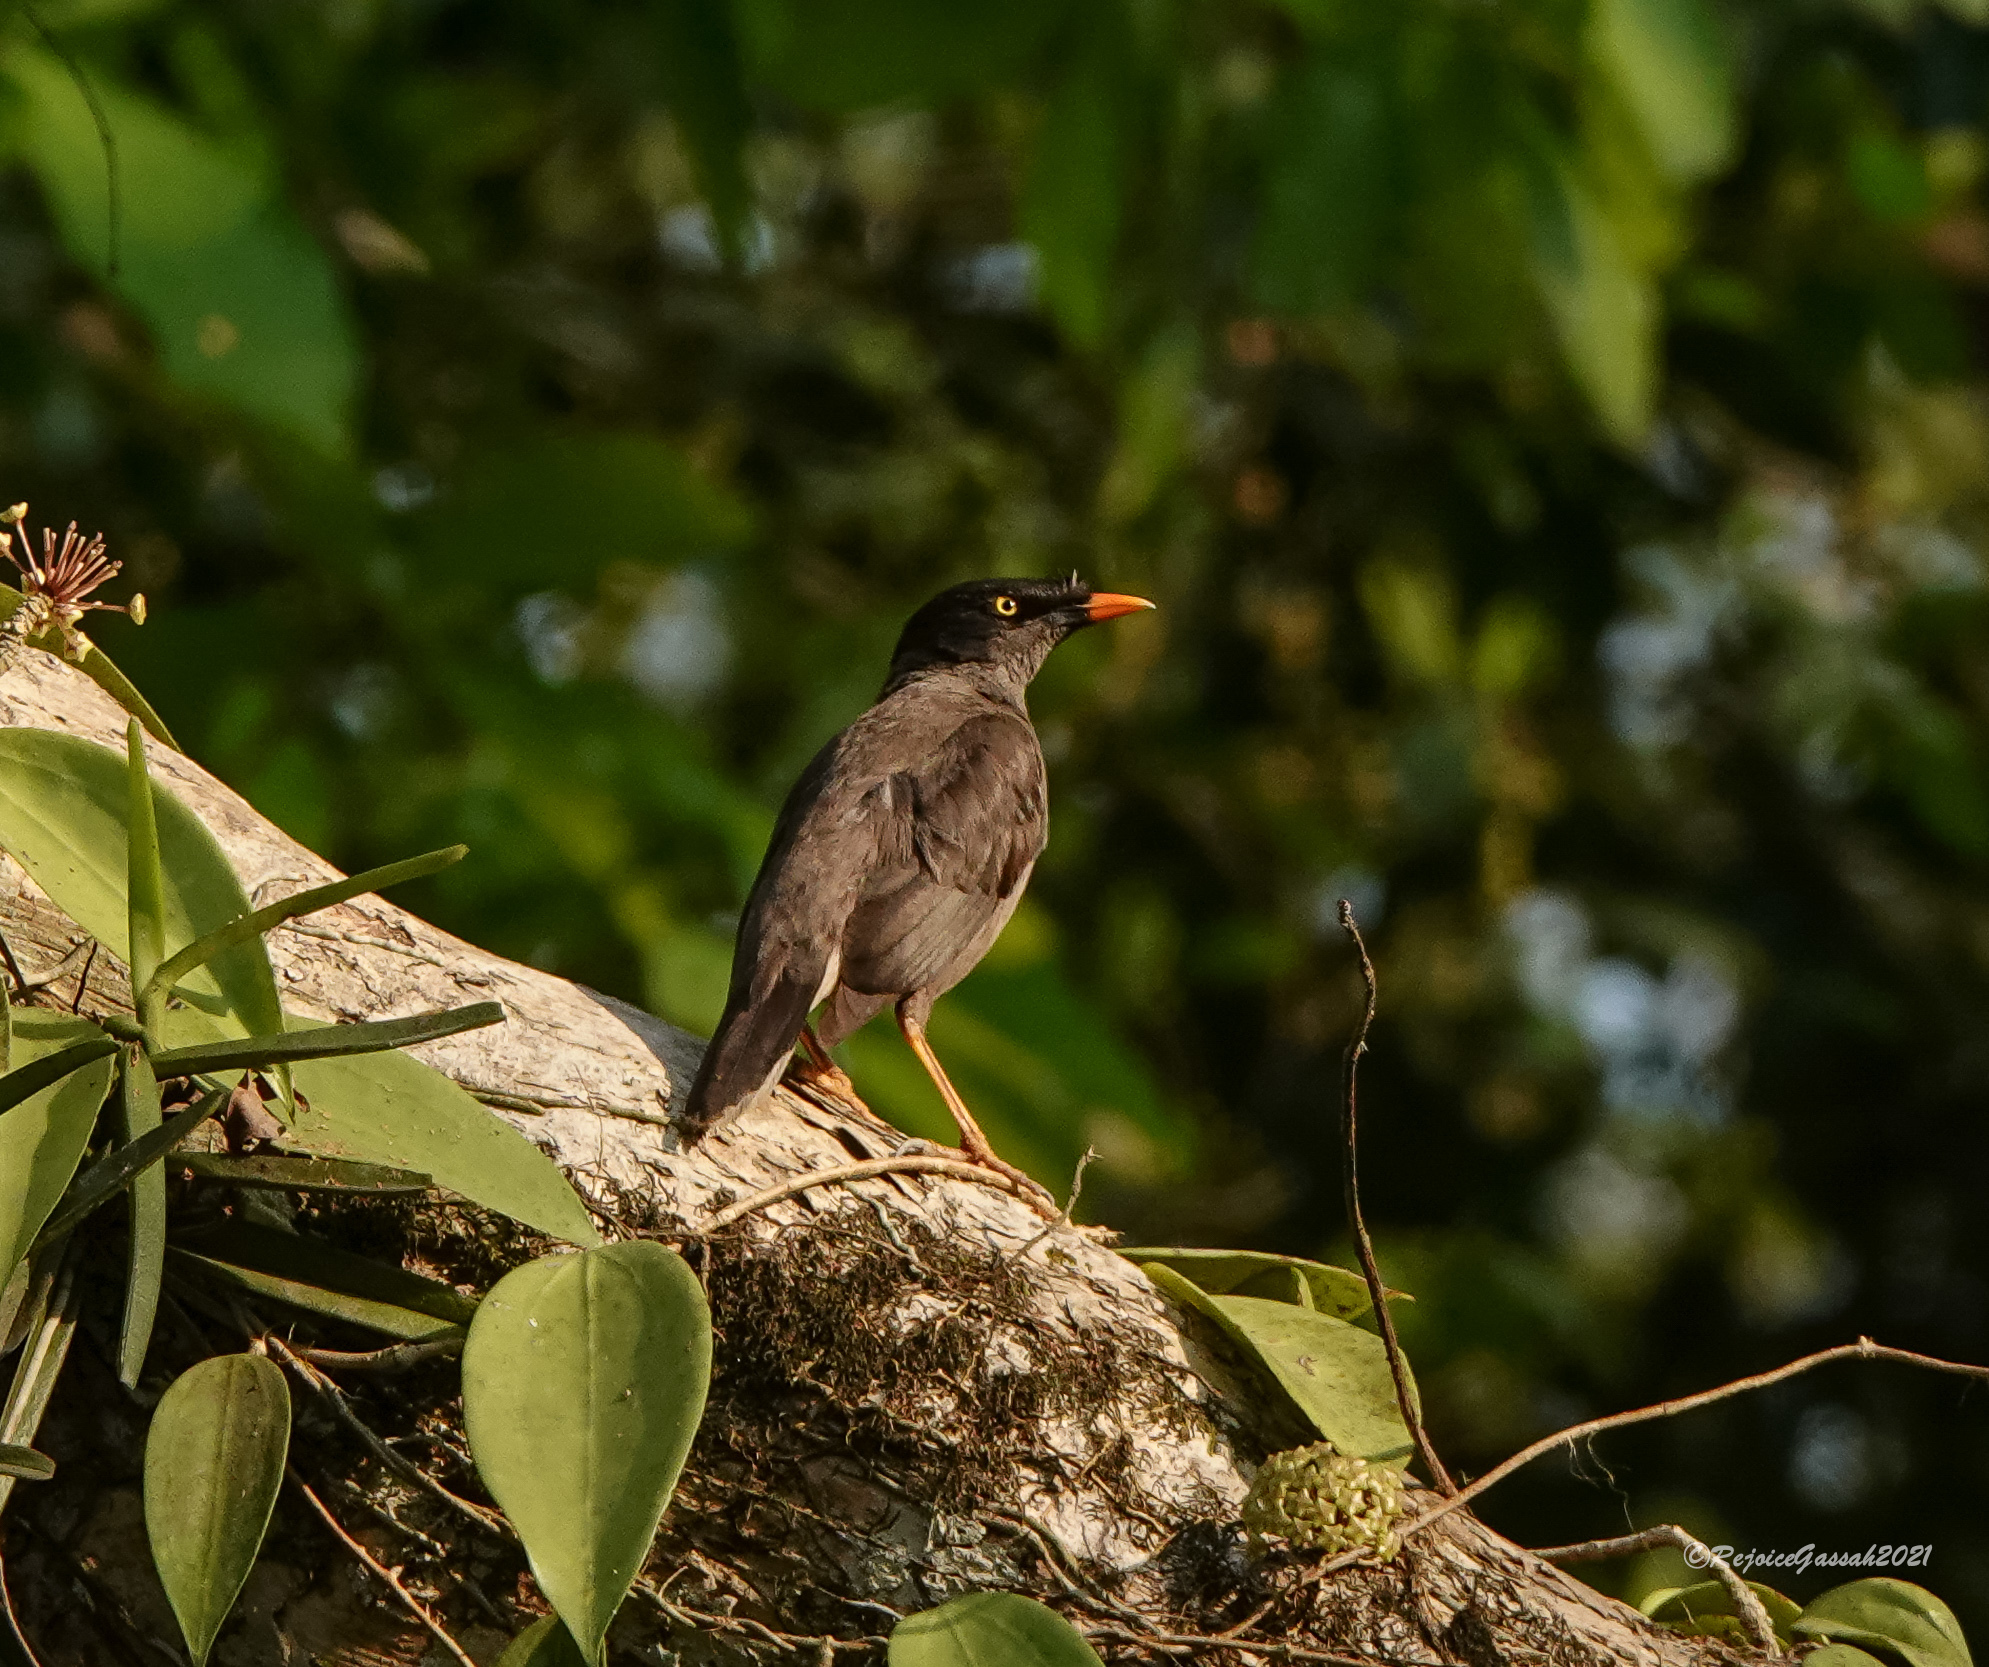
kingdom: Animalia
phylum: Chordata
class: Aves
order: Passeriformes
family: Sturnidae
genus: Acridotheres
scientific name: Acridotheres fuscus
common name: Jungle myna
